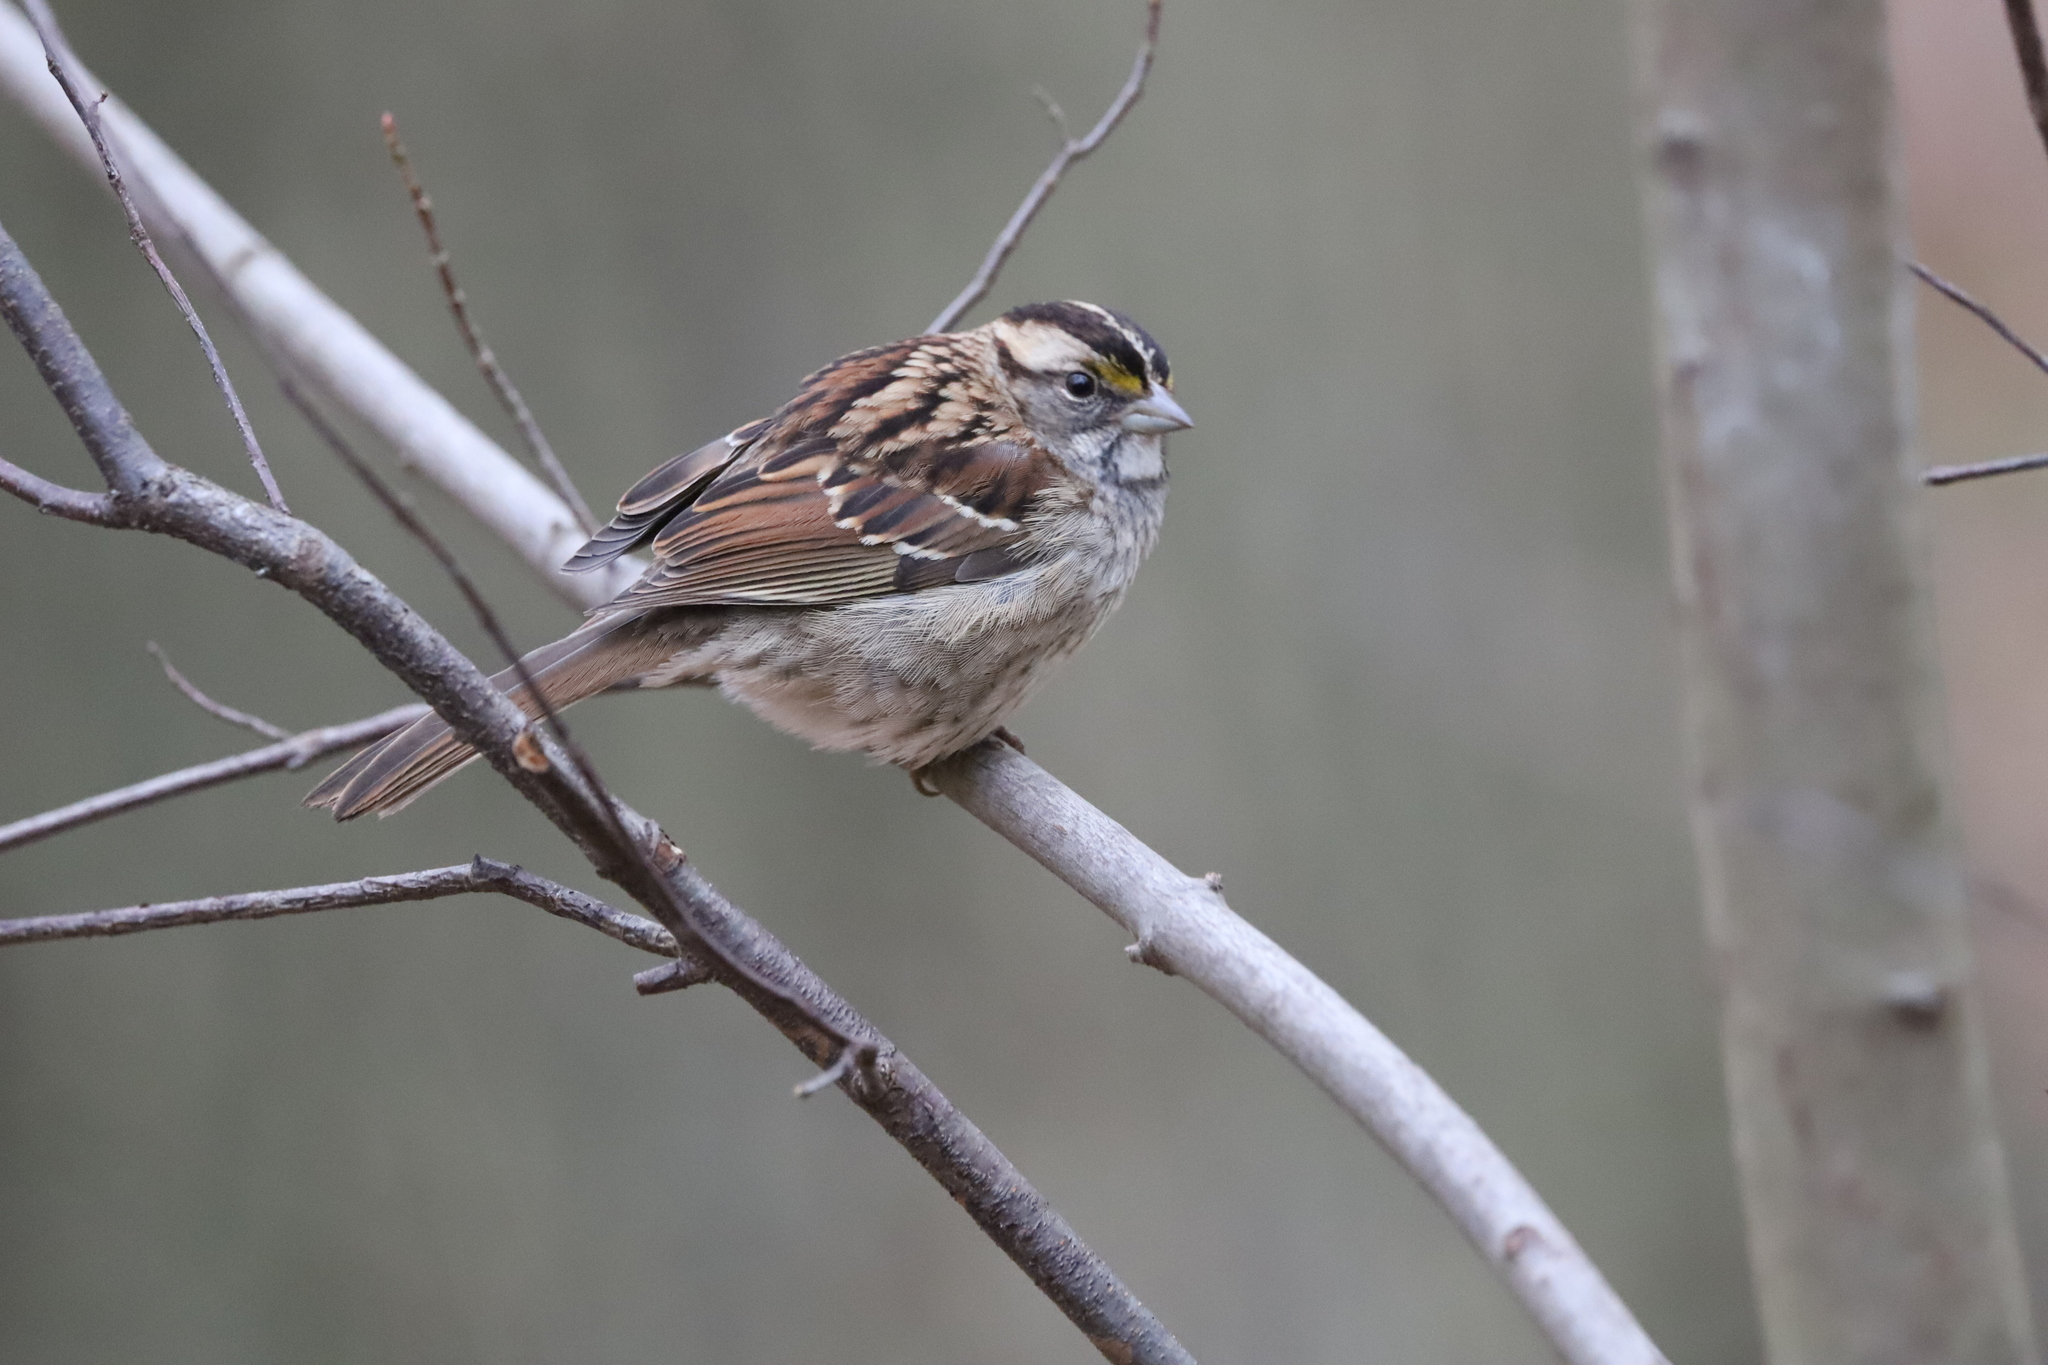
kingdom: Animalia
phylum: Chordata
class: Aves
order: Passeriformes
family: Passerellidae
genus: Zonotrichia
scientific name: Zonotrichia albicollis
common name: White-throated sparrow
